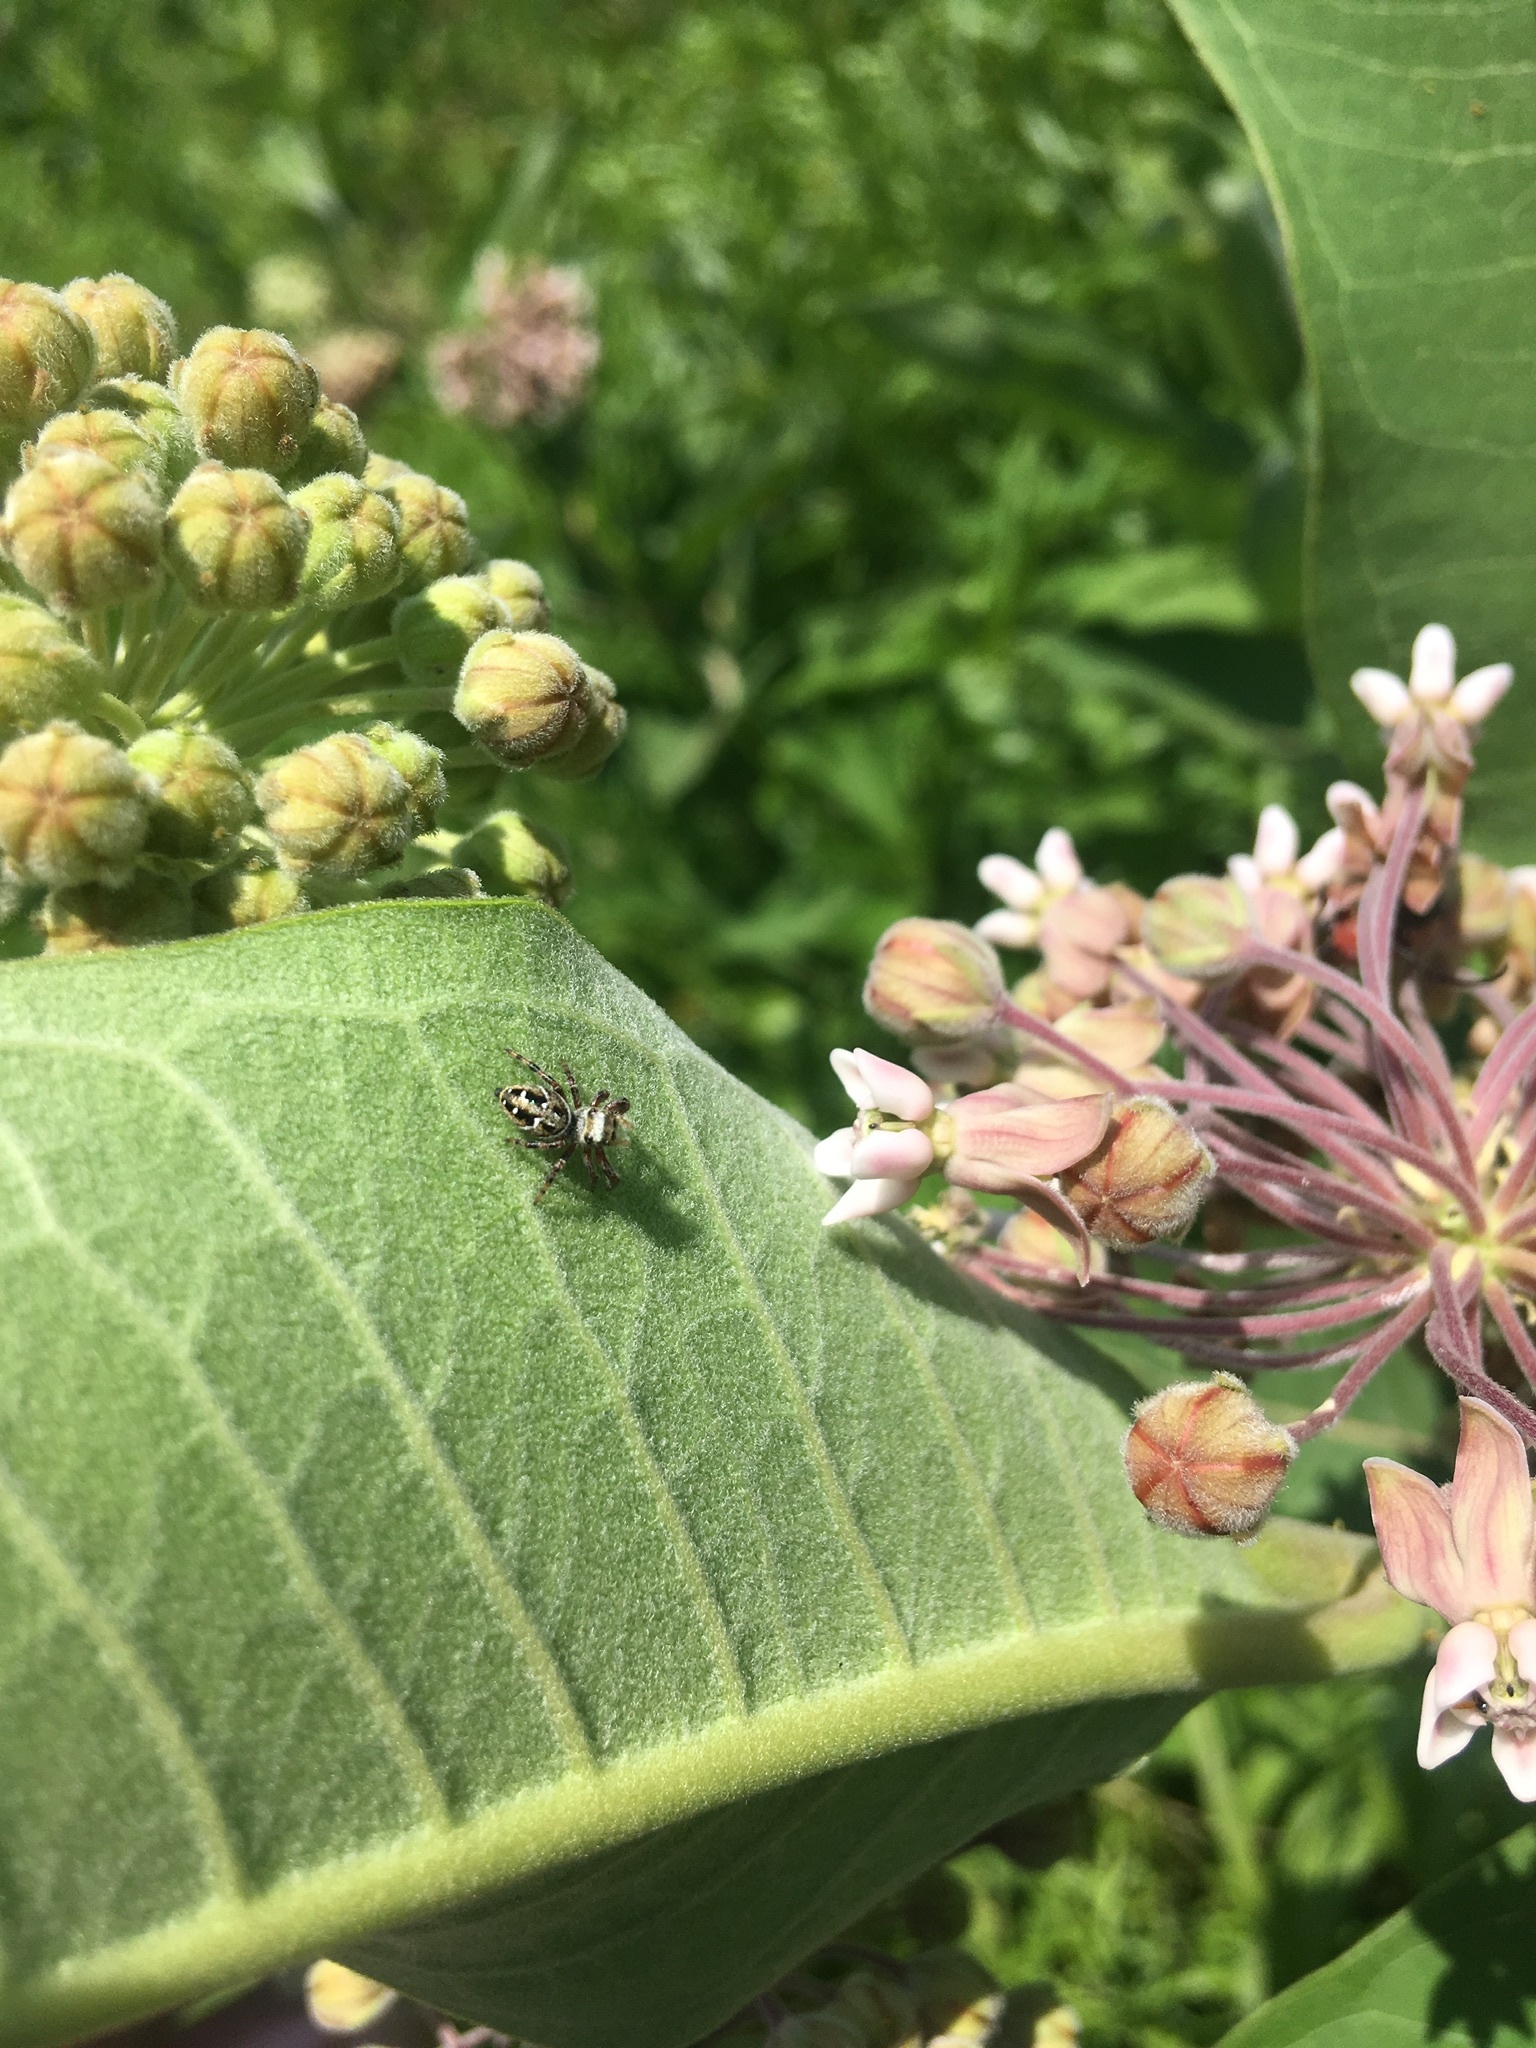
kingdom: Animalia
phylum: Arthropoda
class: Arachnida
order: Araneae
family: Salticidae
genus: Phidippus
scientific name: Phidippus clarus
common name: Brilliant jumping spider
